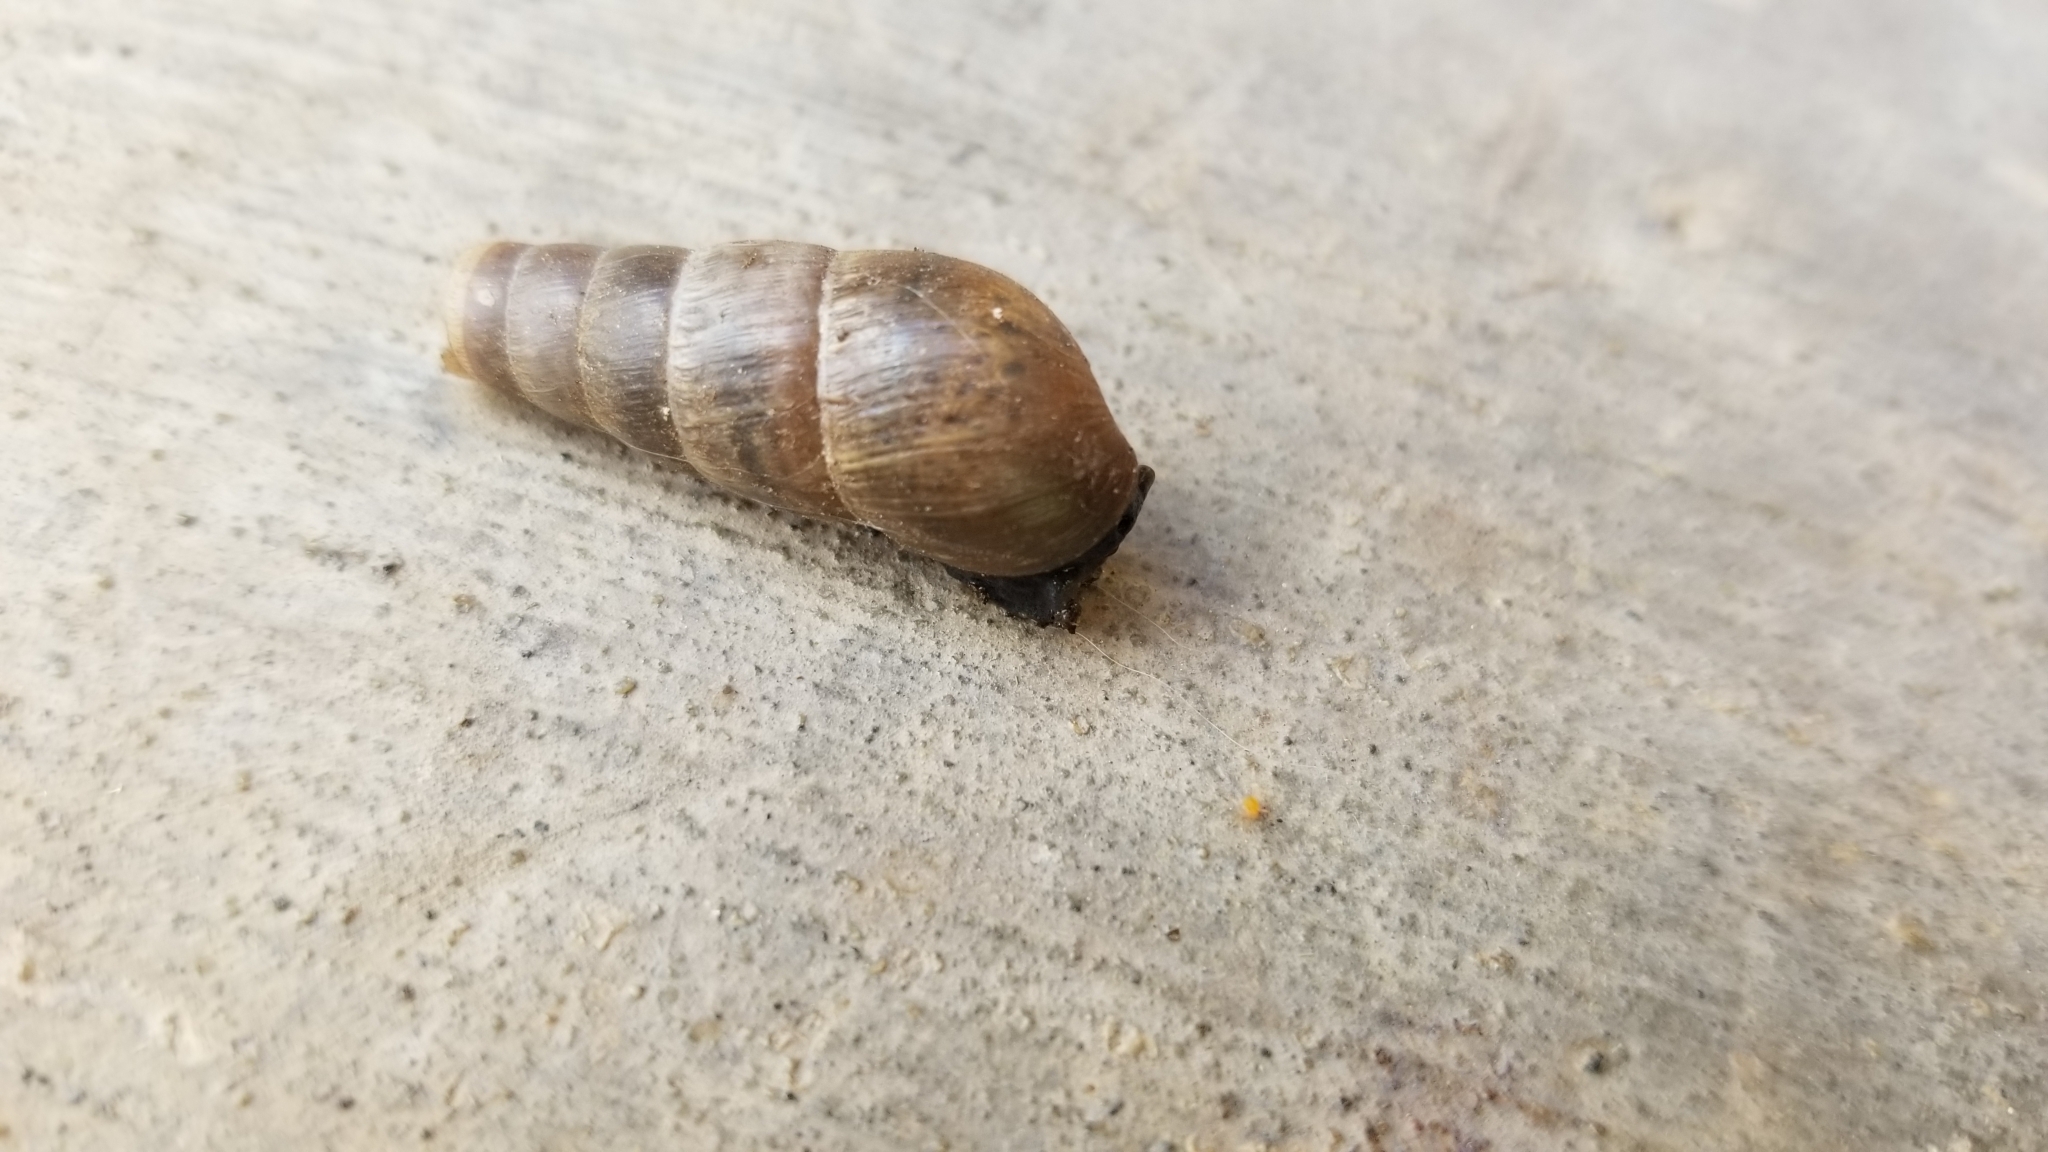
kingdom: Animalia
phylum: Mollusca
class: Gastropoda
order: Stylommatophora
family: Achatinidae
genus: Rumina
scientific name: Rumina decollata
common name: Decollate snail
